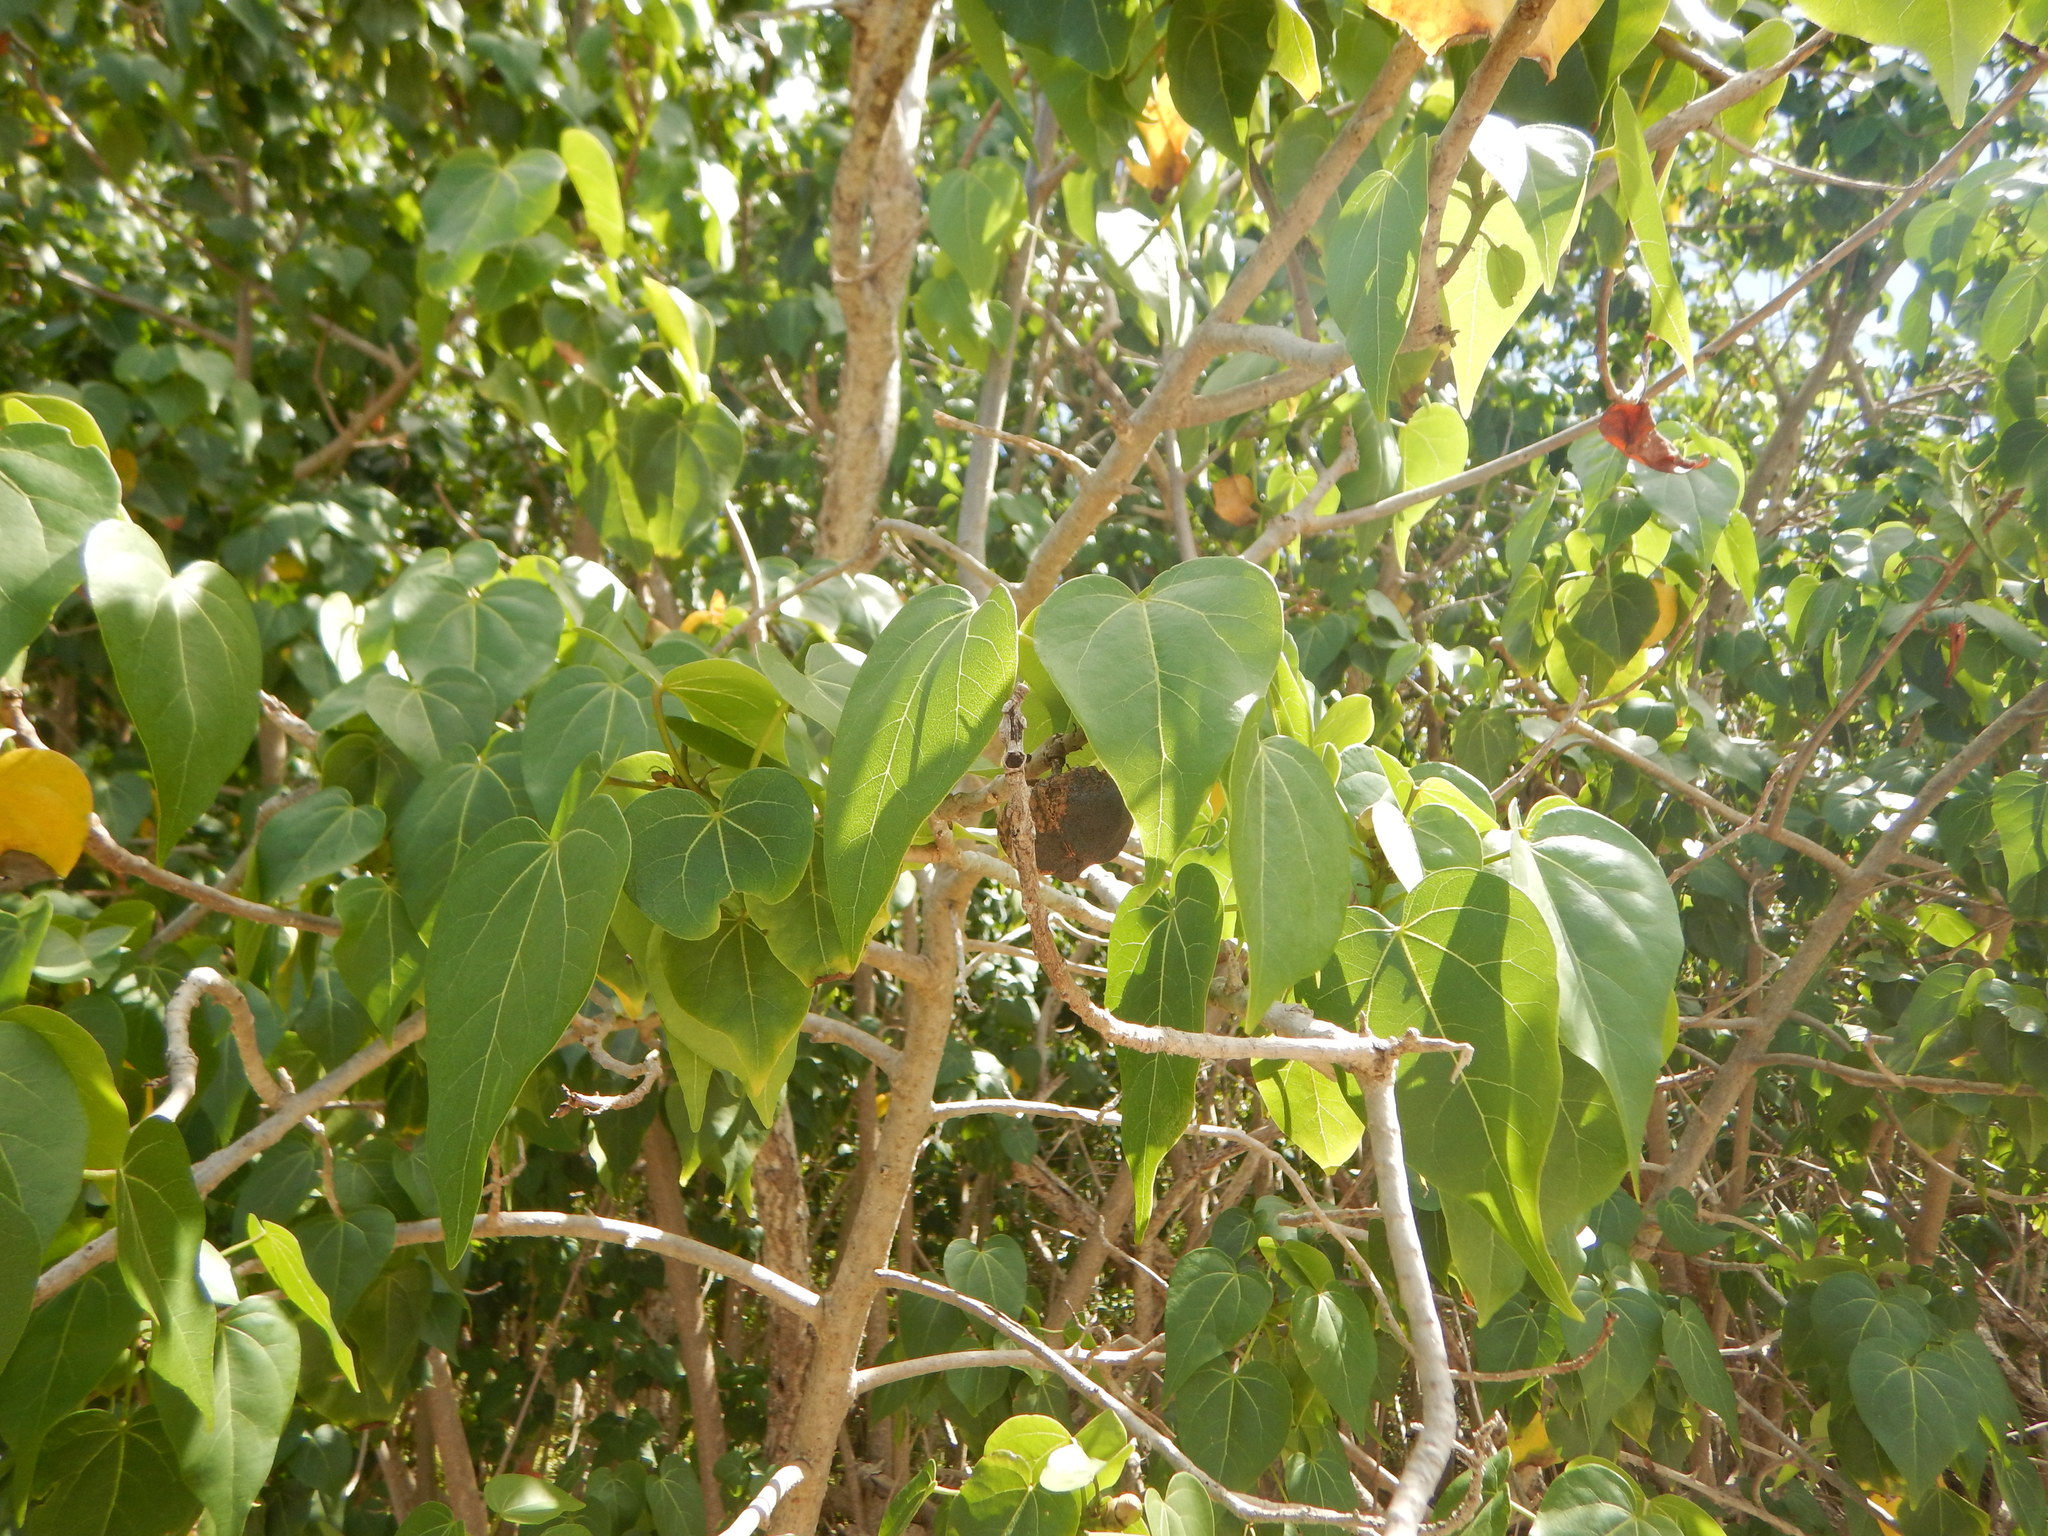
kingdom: Plantae
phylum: Tracheophyta
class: Magnoliopsida
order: Malvales
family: Malvaceae
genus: Thespesia
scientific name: Thespesia populnea
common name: Seaside mahoe
